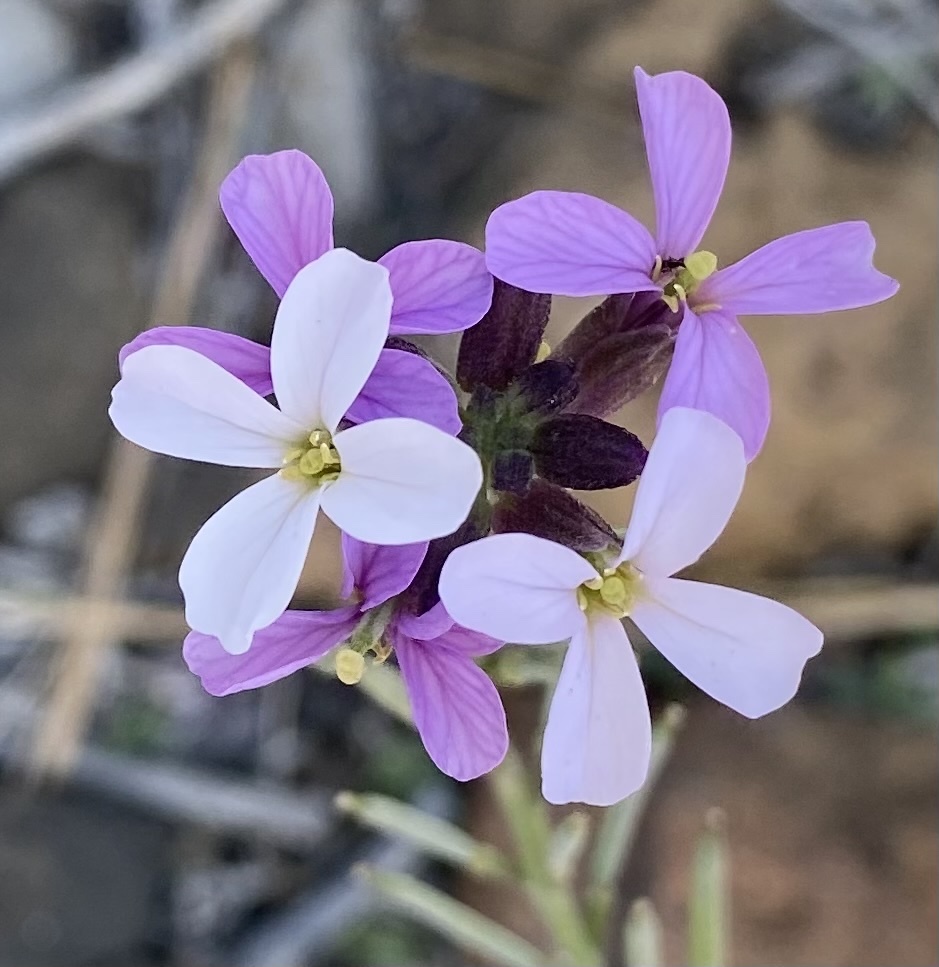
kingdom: Plantae
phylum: Tracheophyta
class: Magnoliopsida
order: Brassicales
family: Brassicaceae
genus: Erysimum
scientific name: Erysimum scoparium
